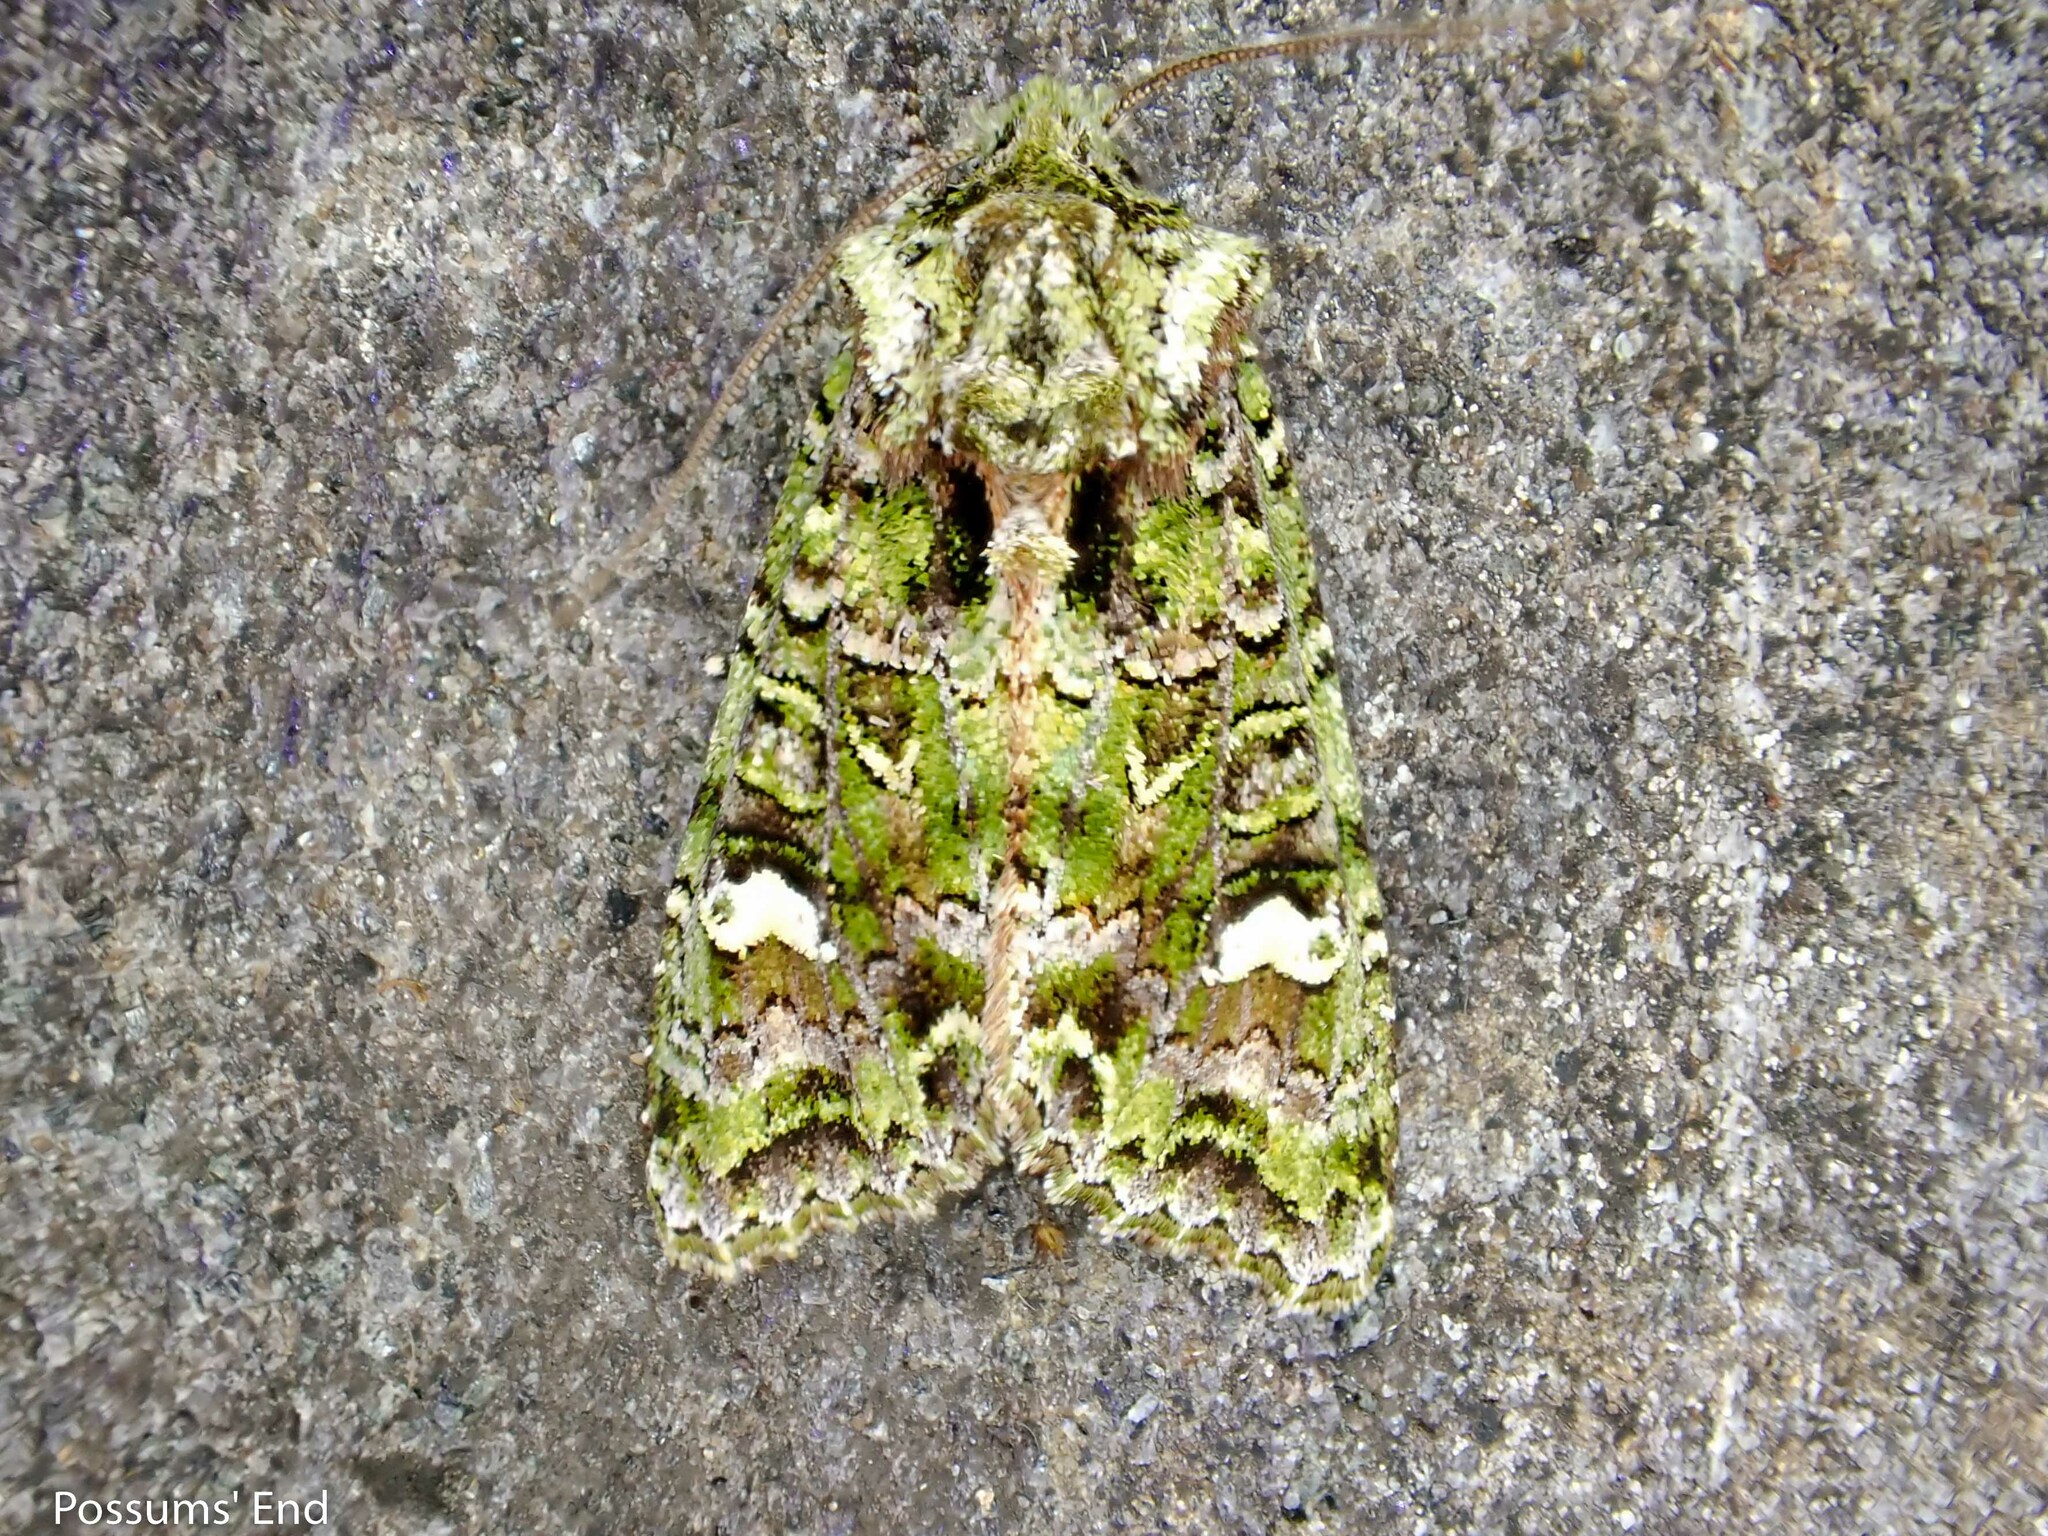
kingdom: Animalia
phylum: Arthropoda
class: Insecta
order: Lepidoptera
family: Noctuidae
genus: Ichneutica
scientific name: Ichneutica
